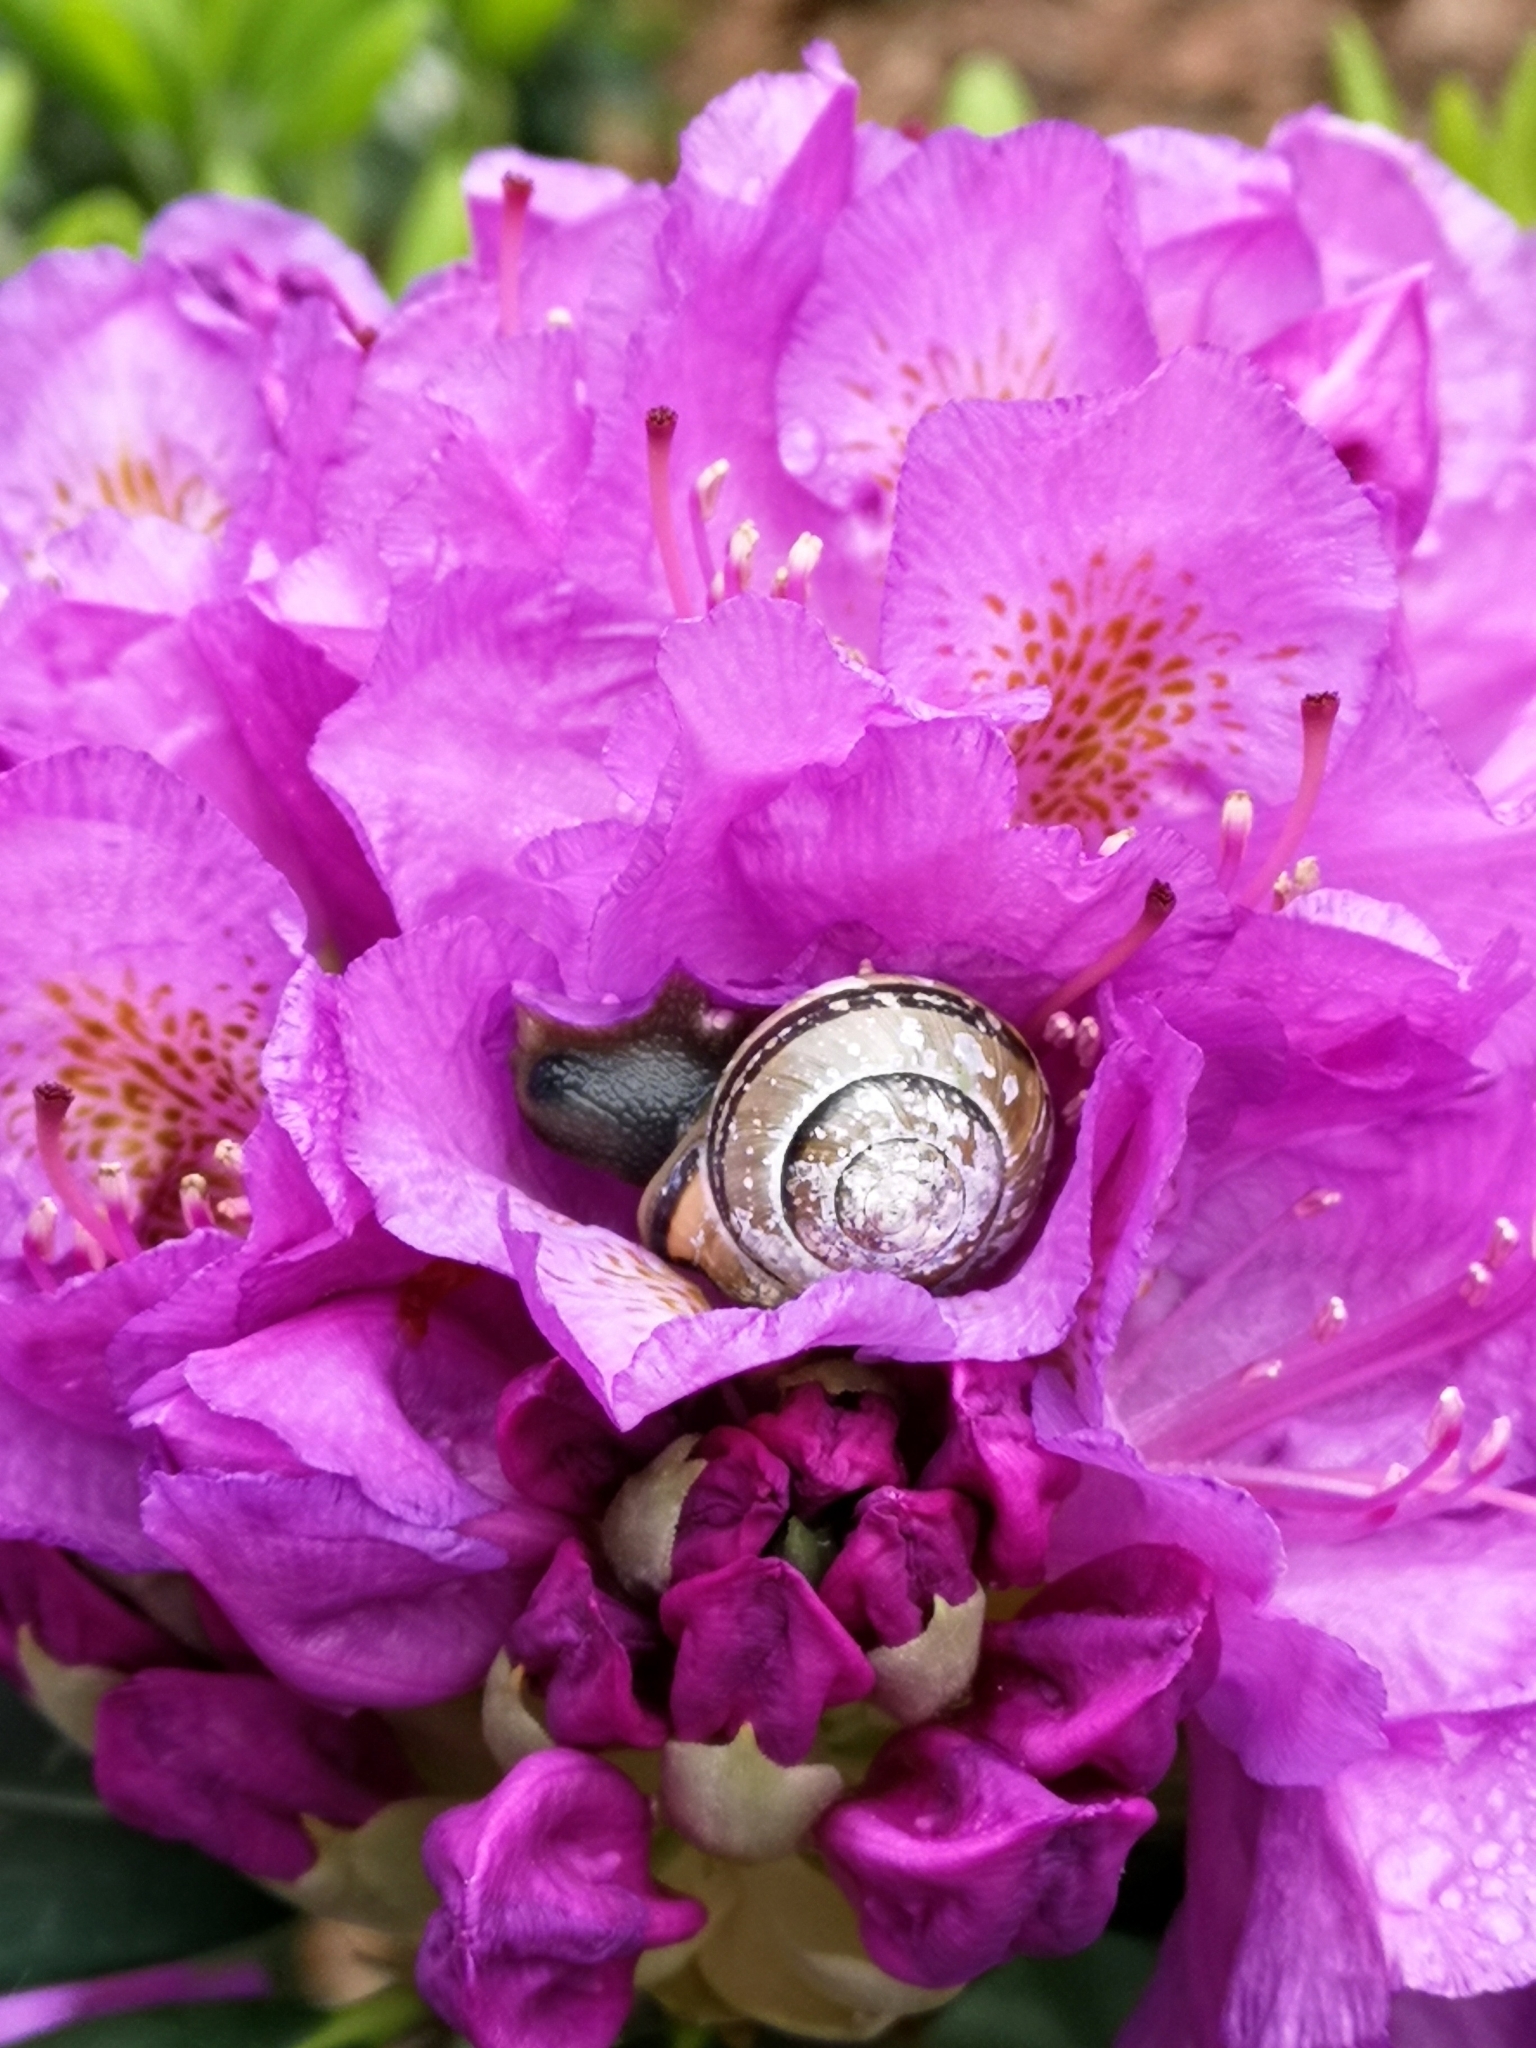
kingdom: Animalia
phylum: Mollusca
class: Gastropoda
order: Stylommatophora
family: Helicidae
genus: Cepaea
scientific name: Cepaea nemoralis
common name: Grovesnail
